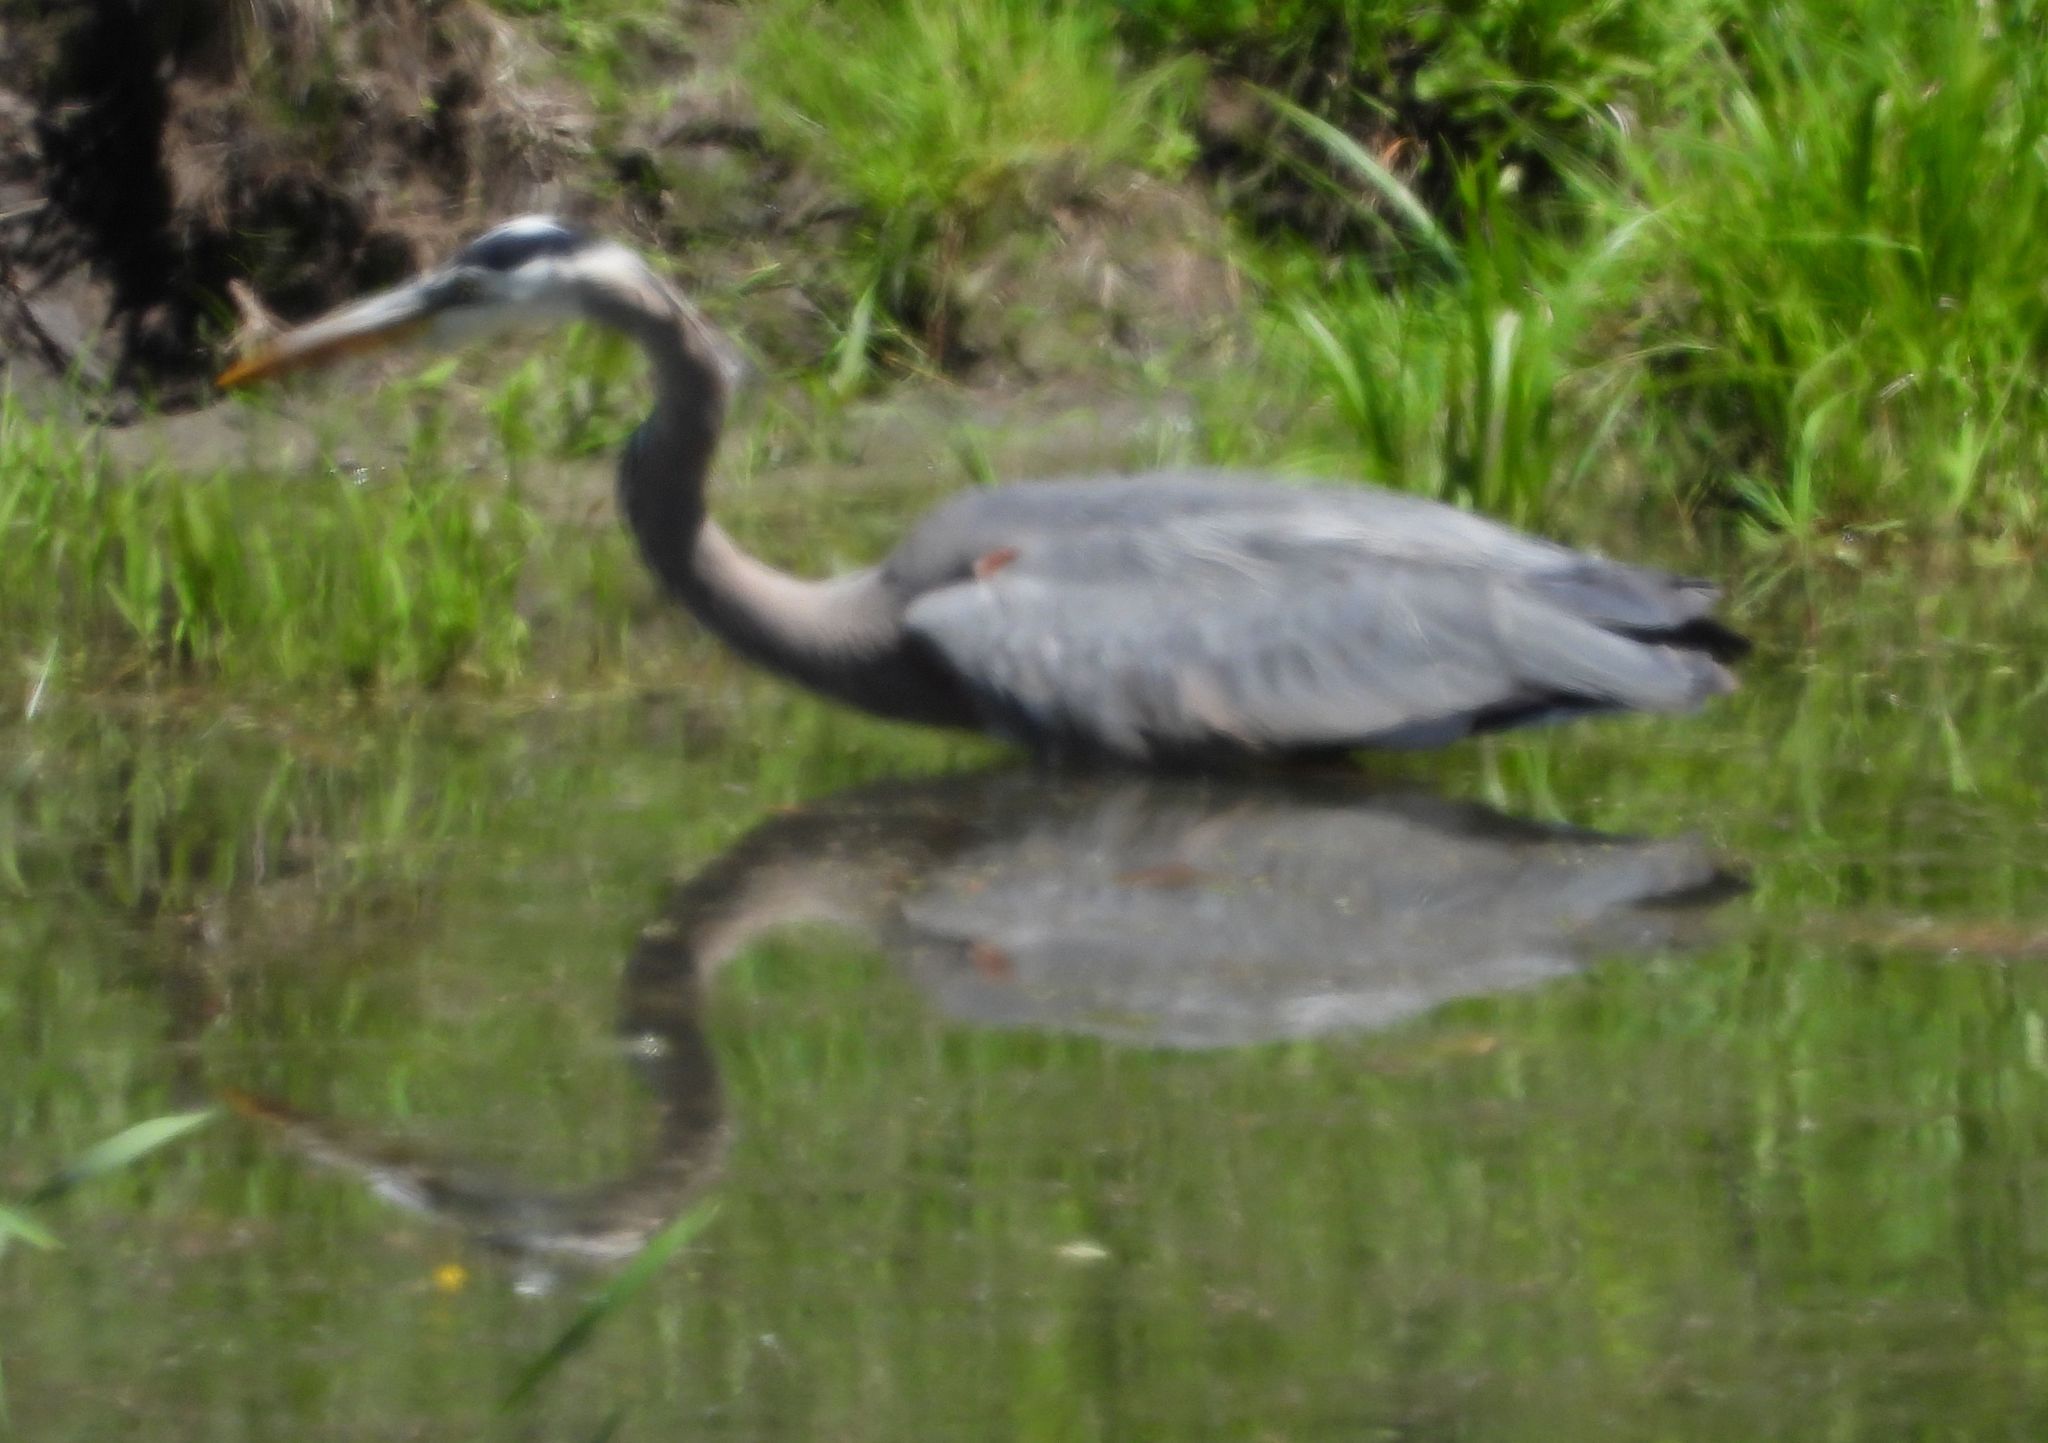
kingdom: Animalia
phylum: Chordata
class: Aves
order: Pelecaniformes
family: Ardeidae
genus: Ardea
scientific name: Ardea herodias
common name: Great blue heron
